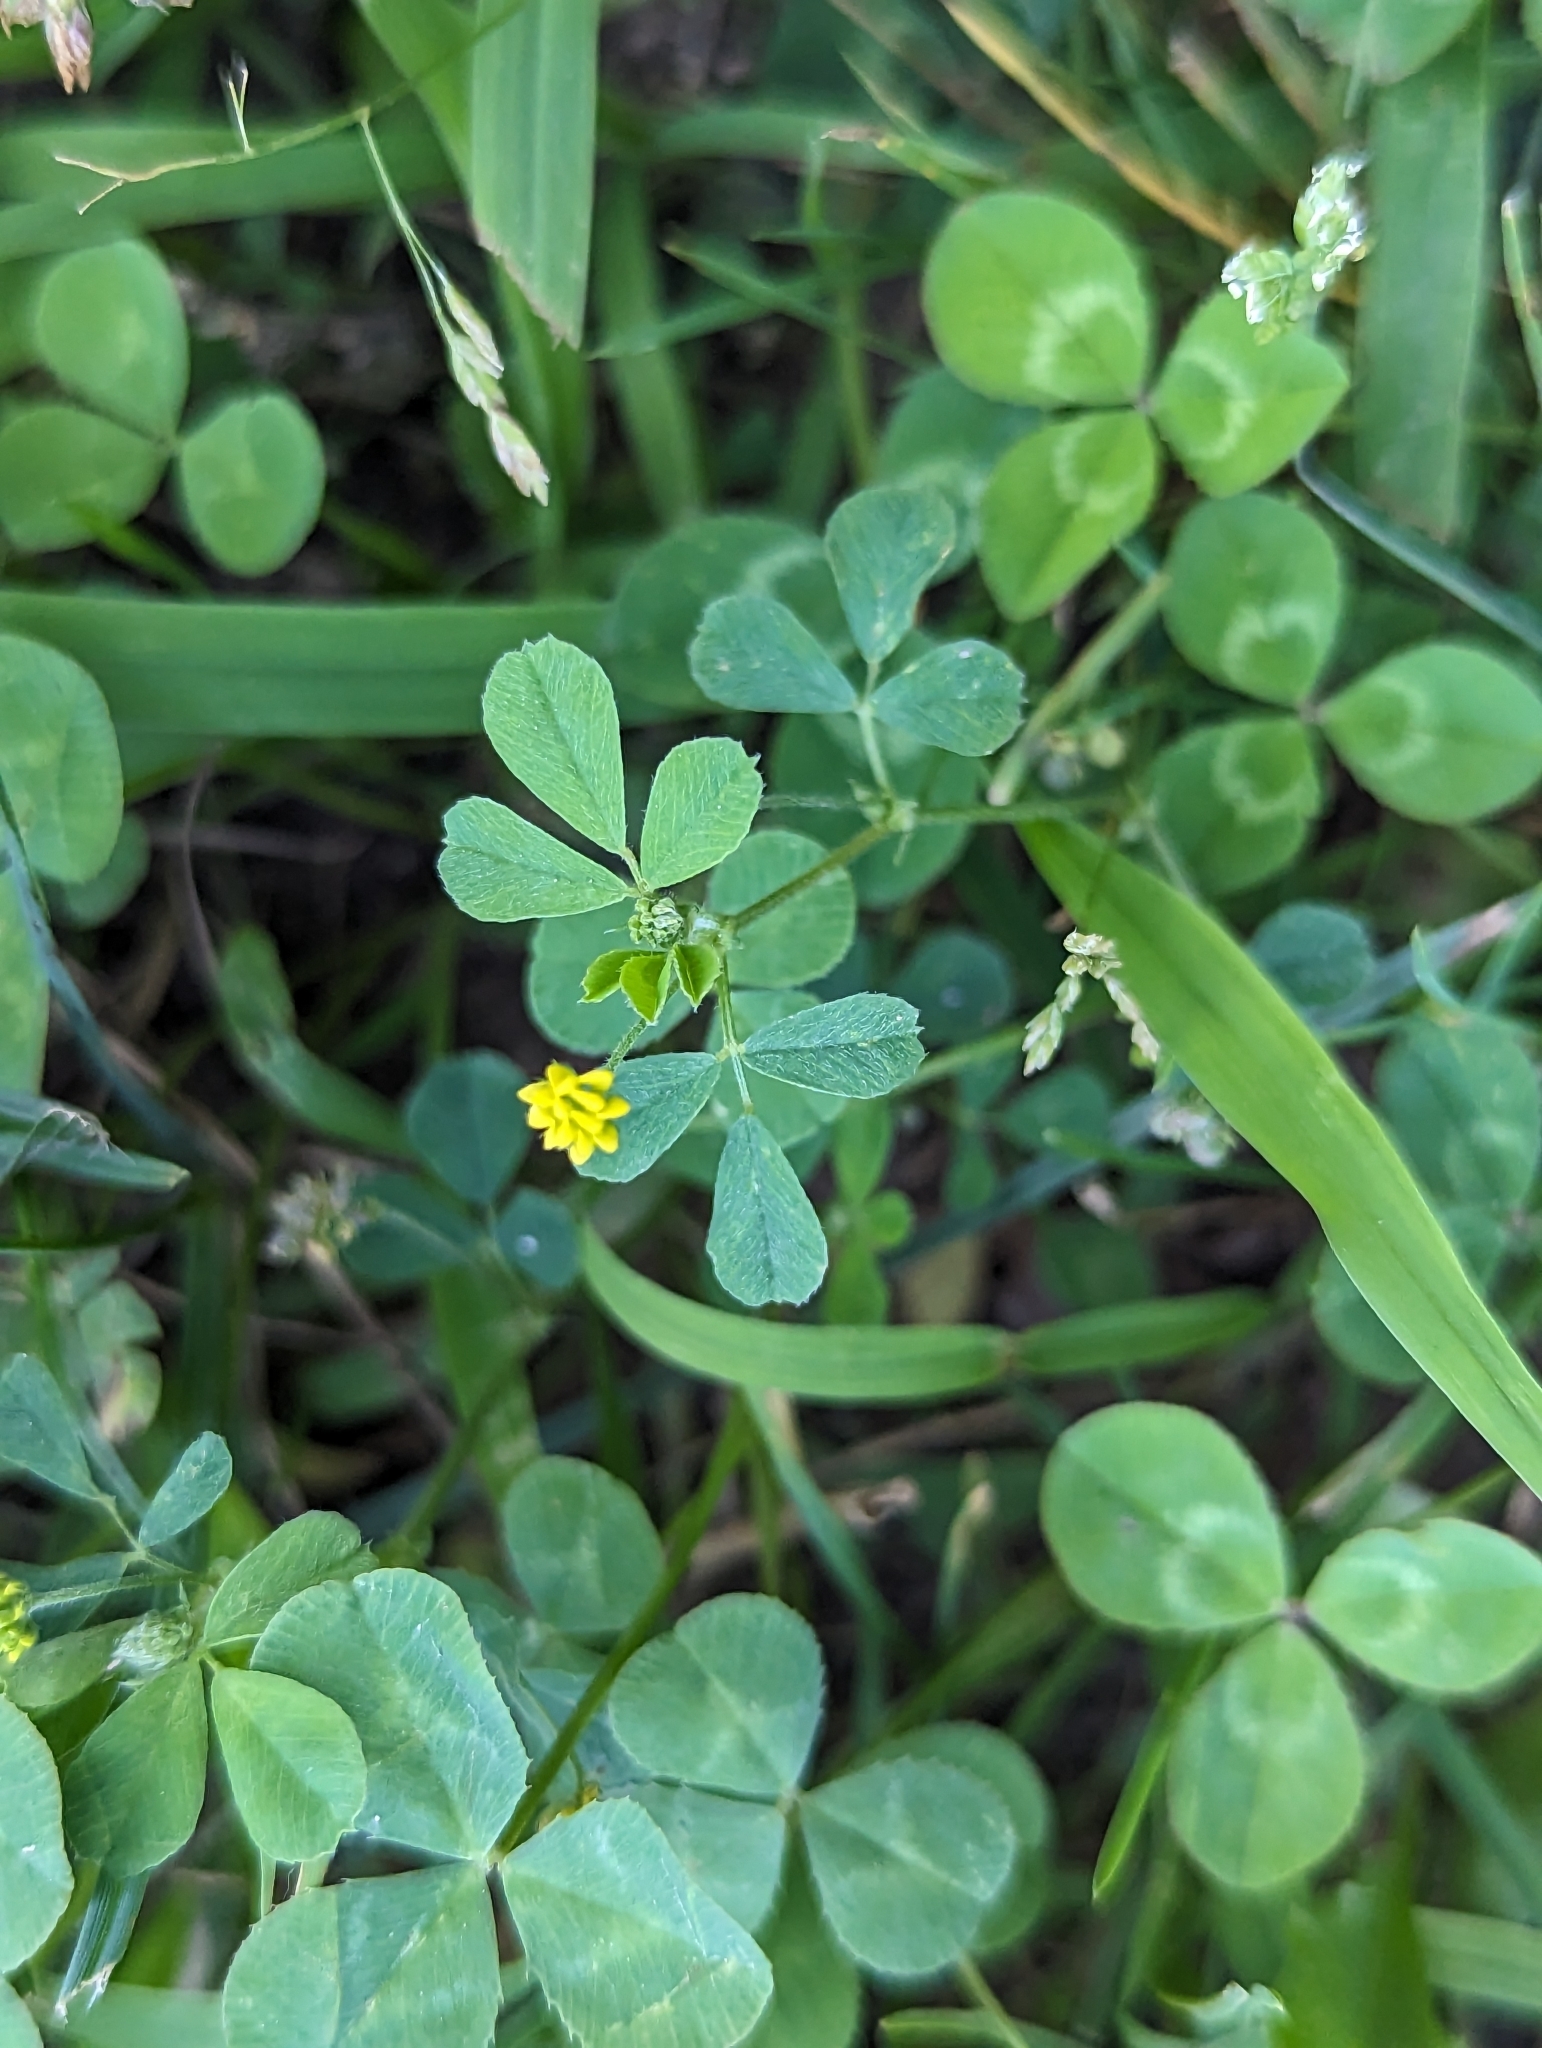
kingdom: Plantae
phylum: Tracheophyta
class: Magnoliopsida
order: Fabales
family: Fabaceae
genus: Medicago
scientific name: Medicago lupulina
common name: Black medick
